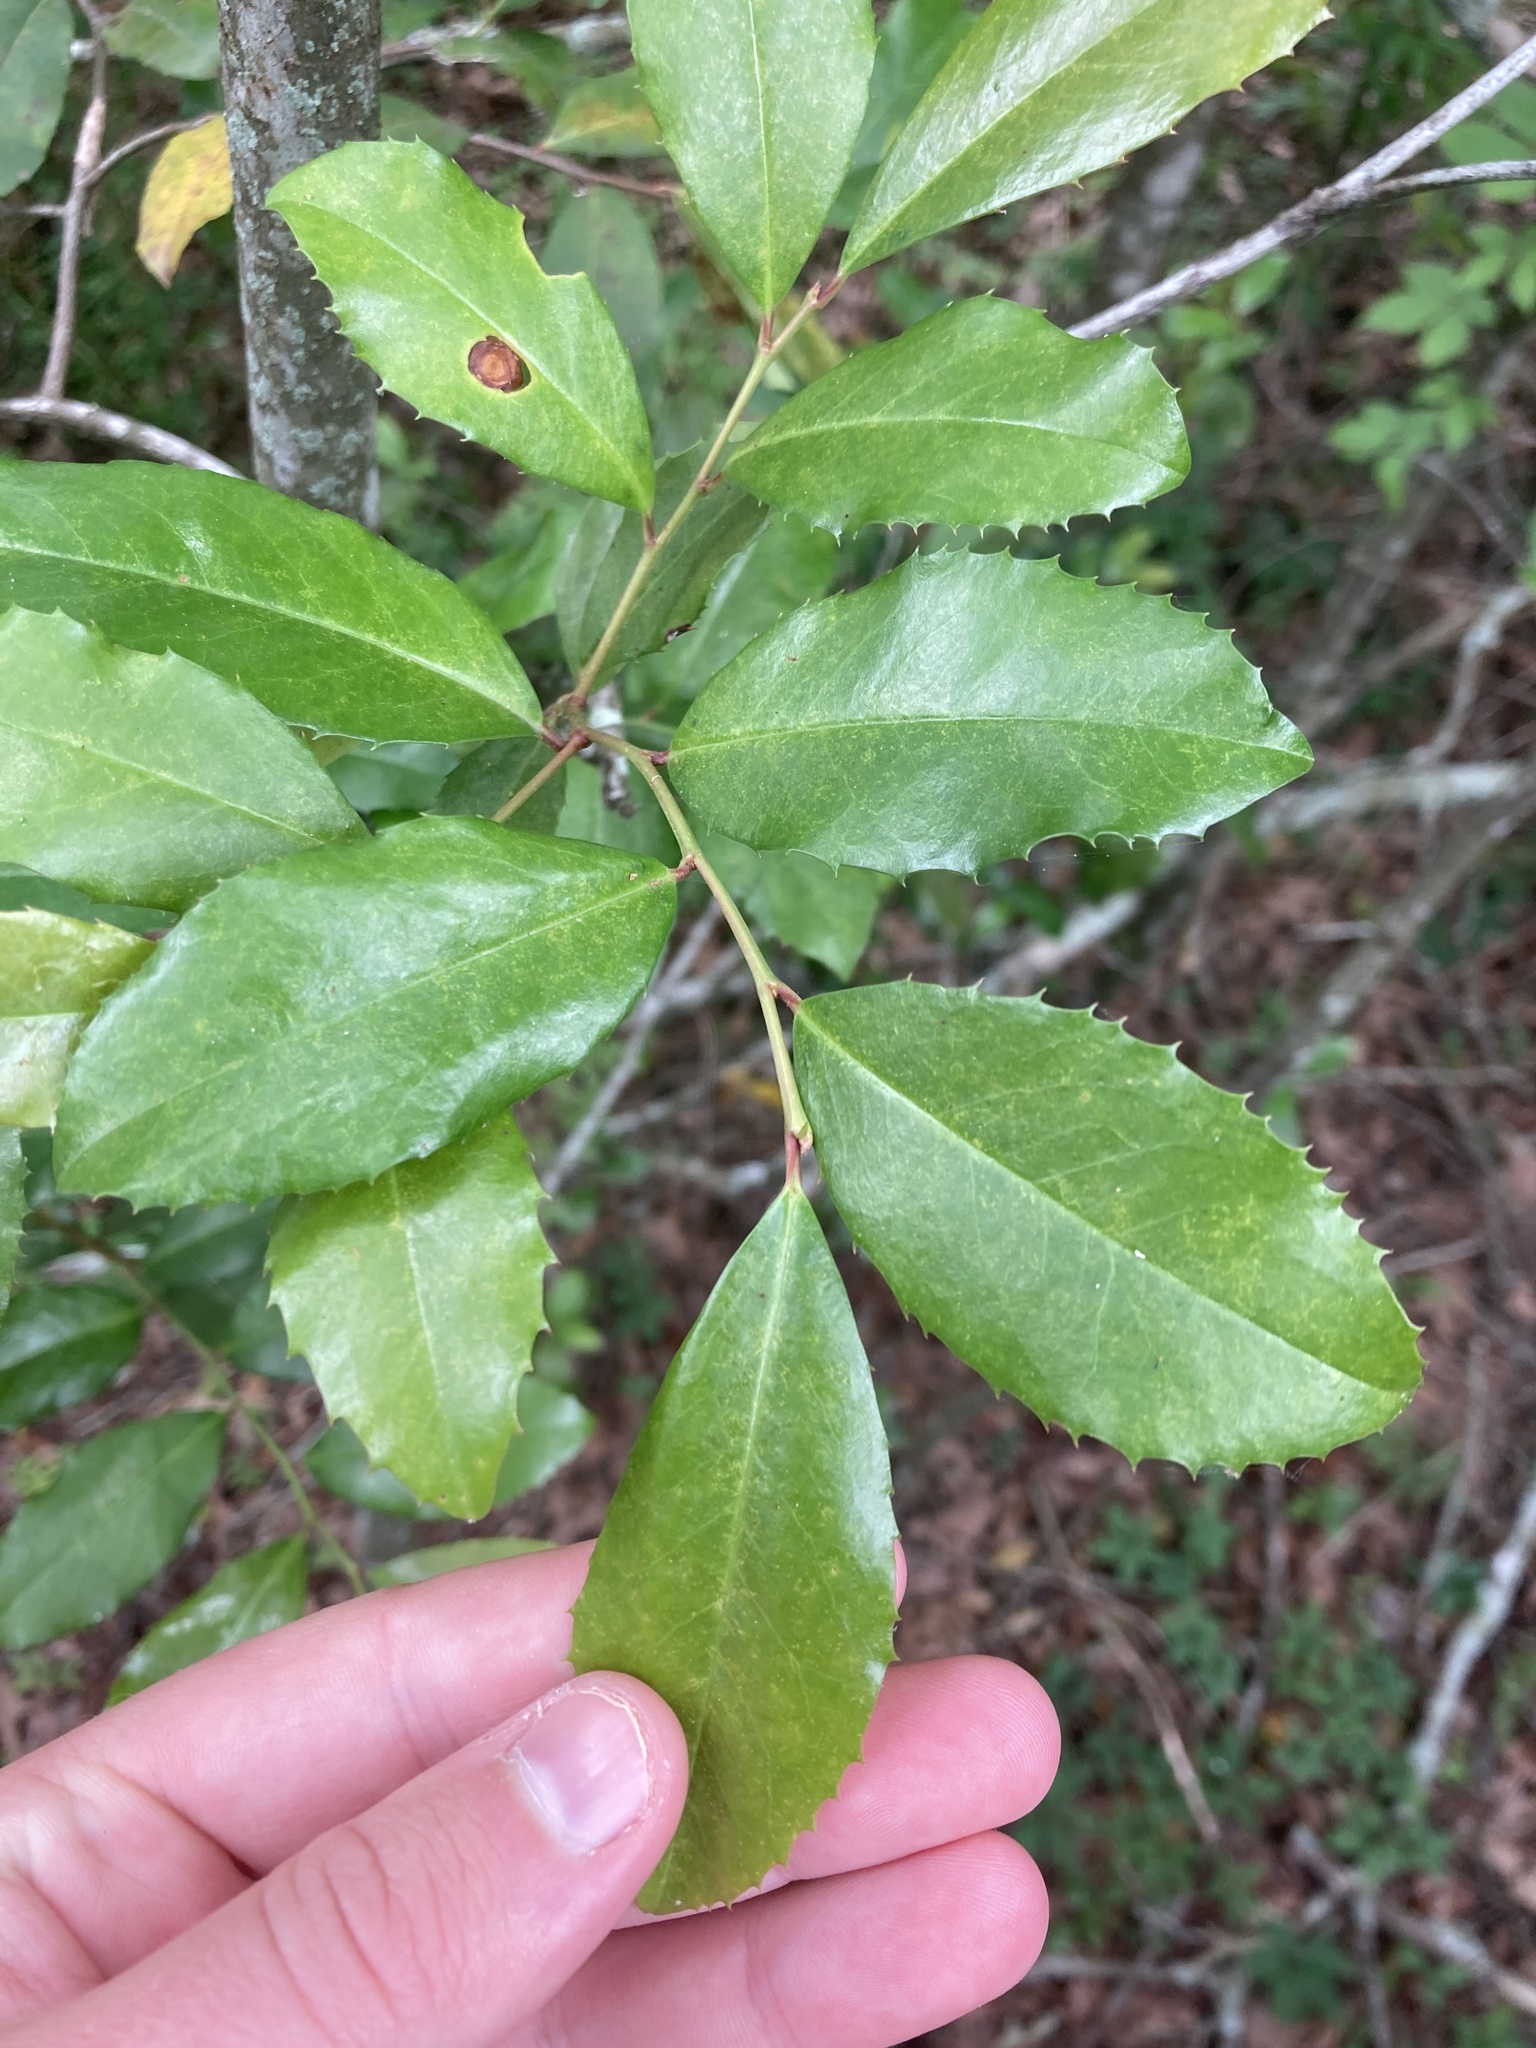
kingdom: Plantae
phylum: Tracheophyta
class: Magnoliopsida
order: Rosales
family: Rosaceae
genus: Prunus
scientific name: Prunus caroliniana
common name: Carolina laurel cherry
